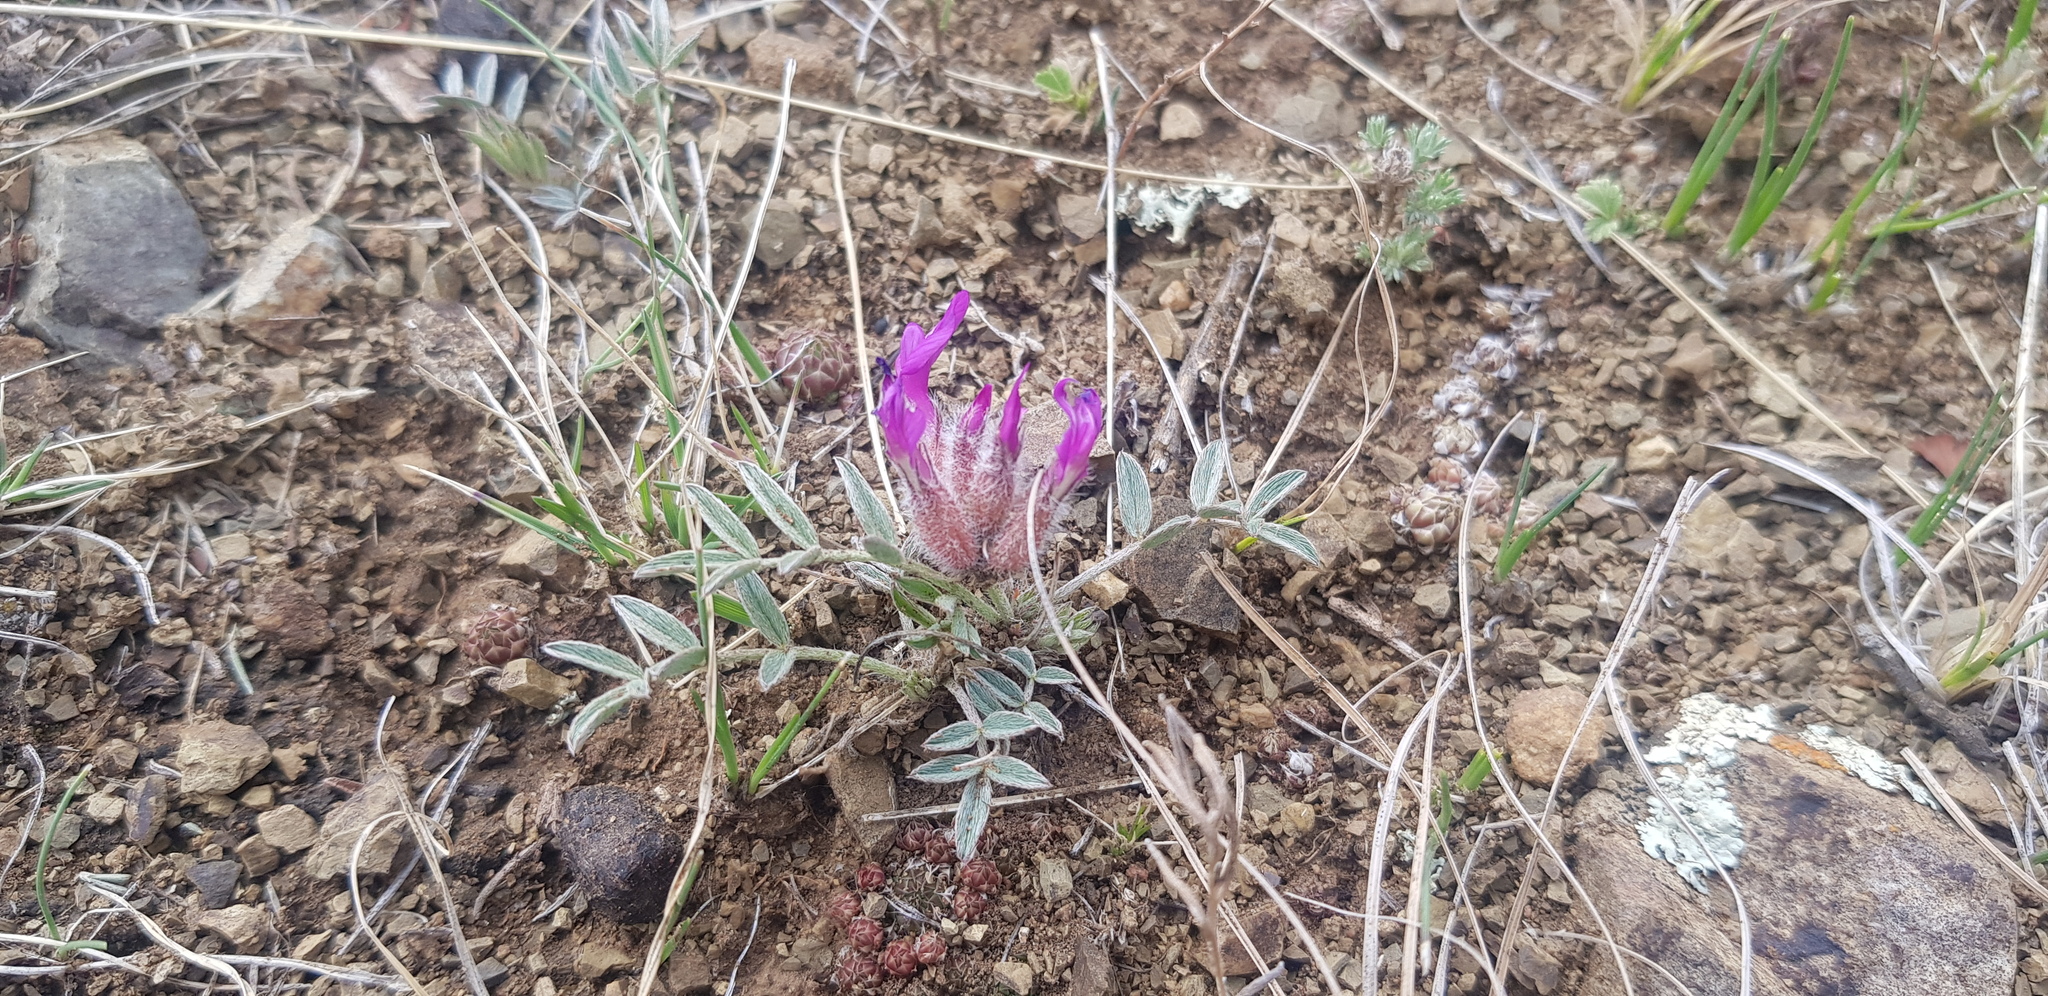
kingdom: Plantae
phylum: Tracheophyta
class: Magnoliopsida
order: Fabales
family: Fabaceae
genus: Astragalus
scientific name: Astragalus laguroides
